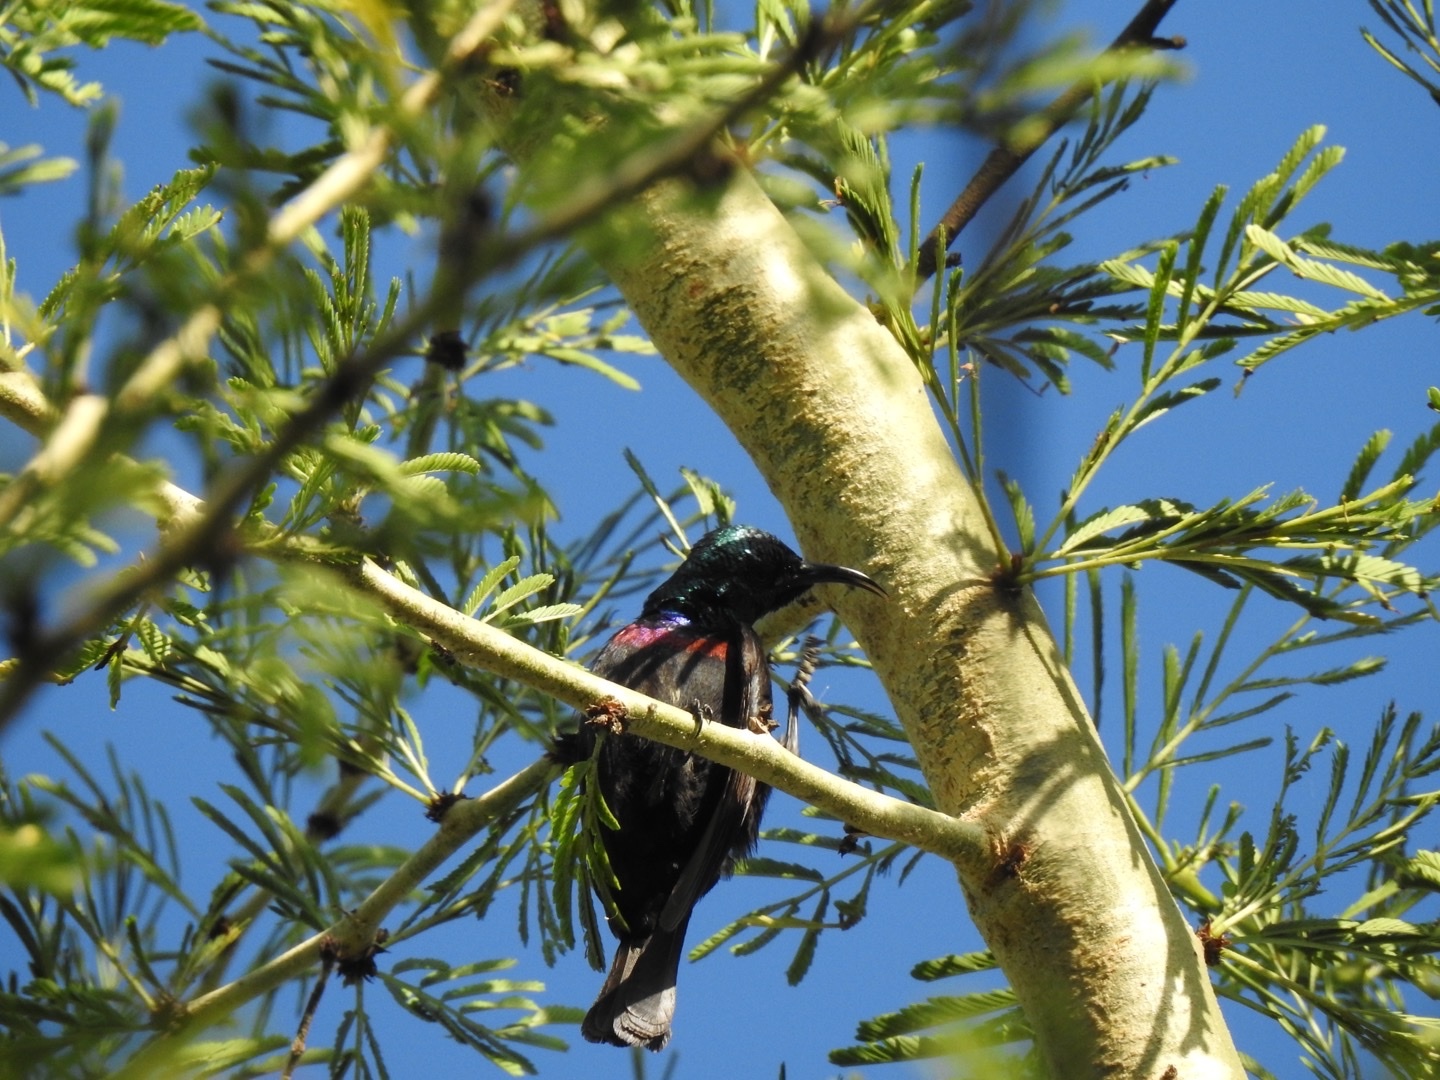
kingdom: Animalia
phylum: Chordata
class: Aves
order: Passeriformes
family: Nectariniidae
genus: Cinnyris
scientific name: Cinnyris bifasciatus
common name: Purple-banded sunbird
